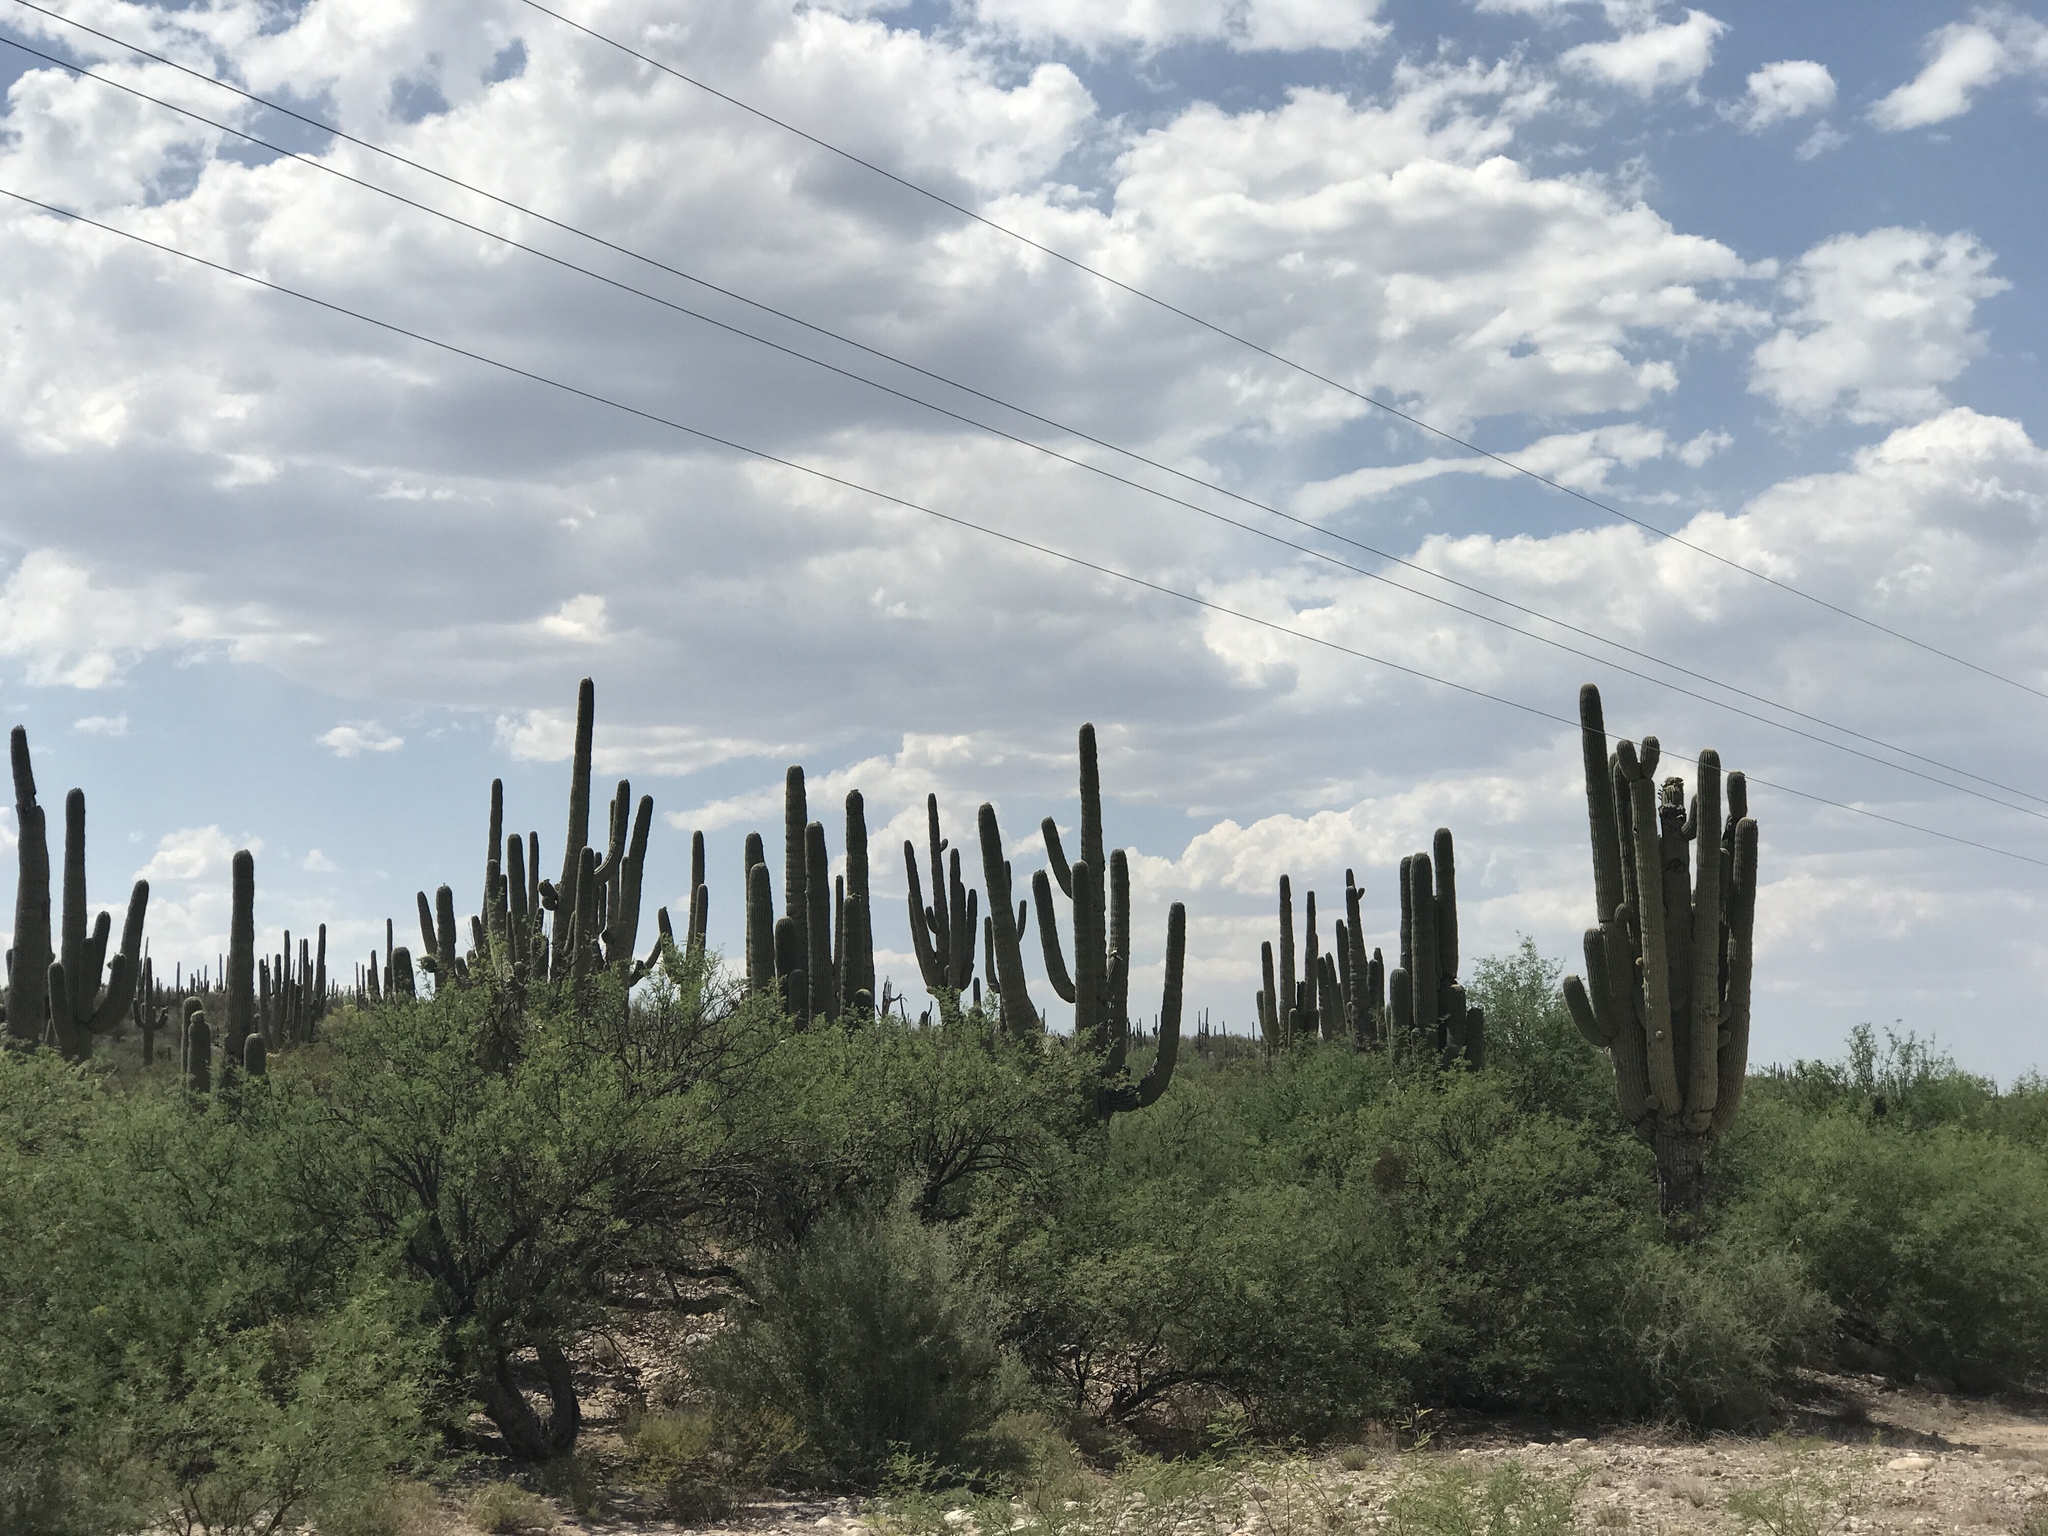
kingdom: Plantae
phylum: Tracheophyta
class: Magnoliopsida
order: Caryophyllales
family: Cactaceae
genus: Carnegiea
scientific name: Carnegiea gigantea
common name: Saguaro
